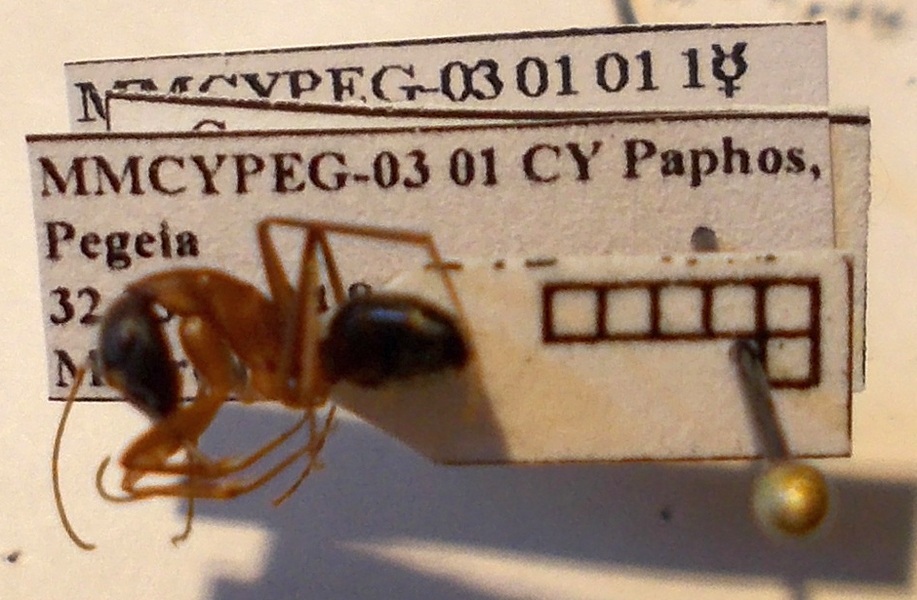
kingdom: Animalia
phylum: Arthropoda
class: Insecta
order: Hymenoptera
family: Formicidae
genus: Camponotus
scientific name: Camponotus sanctus
